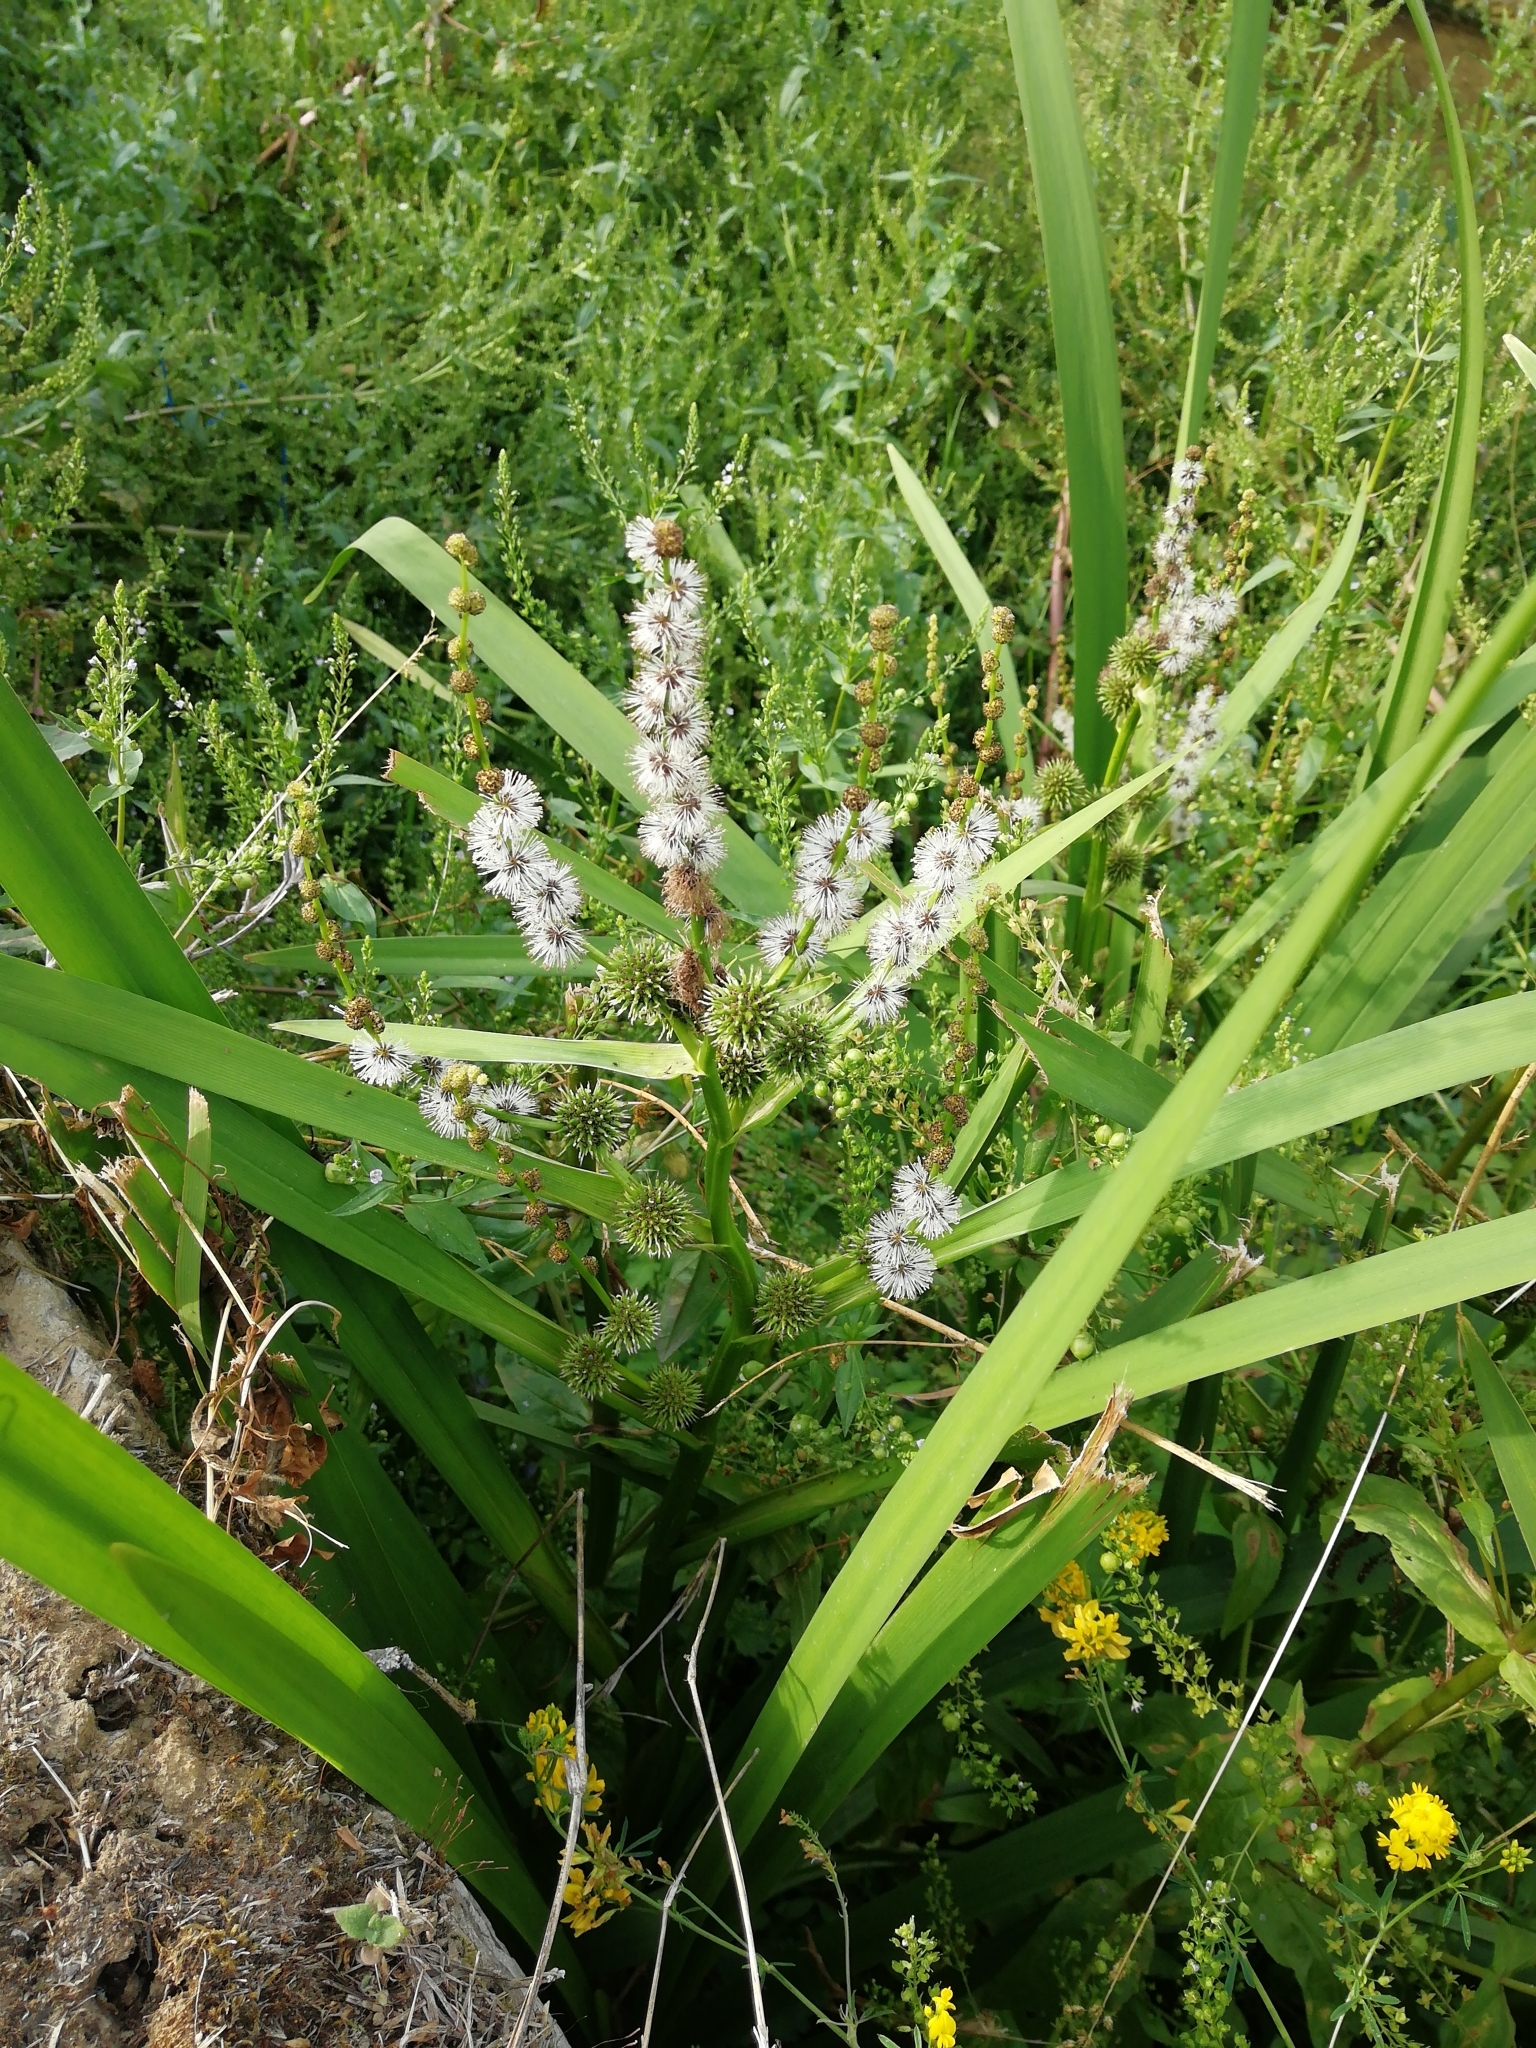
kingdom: Plantae
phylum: Tracheophyta
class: Liliopsida
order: Poales
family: Typhaceae
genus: Sparganium
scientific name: Sparganium erectum
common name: Branched bur-reed
